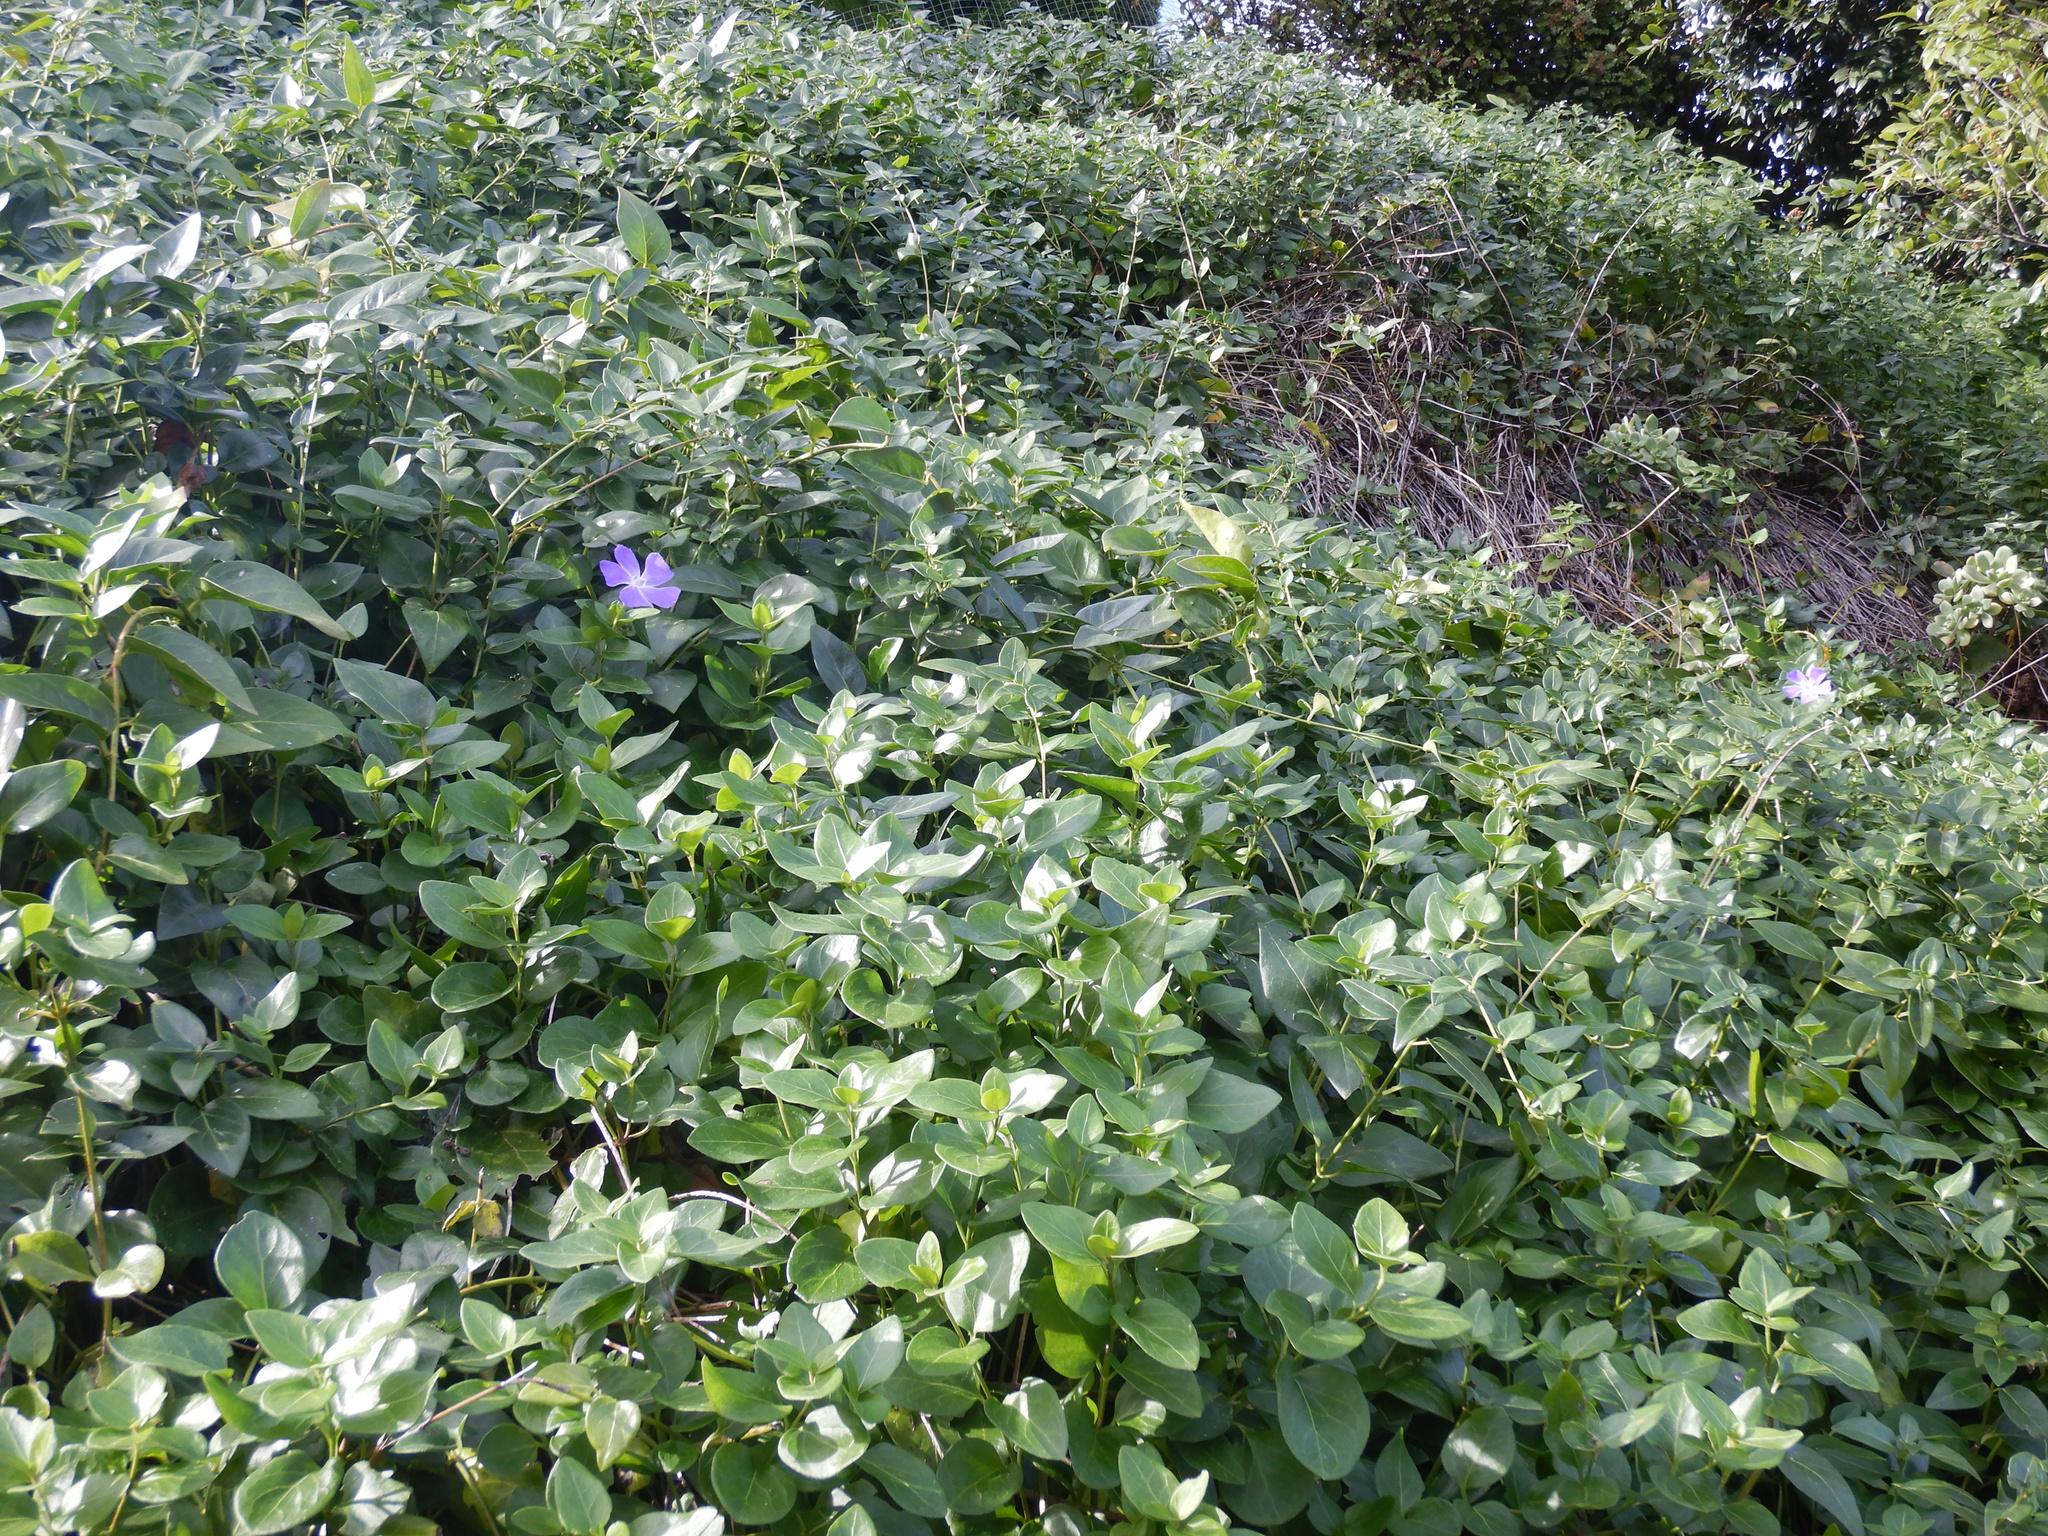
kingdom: Plantae
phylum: Tracheophyta
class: Magnoliopsida
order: Gentianales
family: Apocynaceae
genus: Vinca
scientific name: Vinca major
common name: Greater periwinkle
